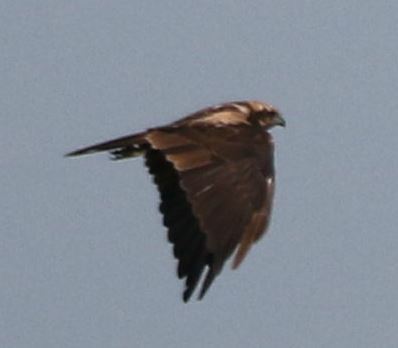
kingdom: Animalia
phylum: Chordata
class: Aves
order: Accipitriformes
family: Accipitridae
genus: Circus
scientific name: Circus aeruginosus
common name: Western marsh harrier
